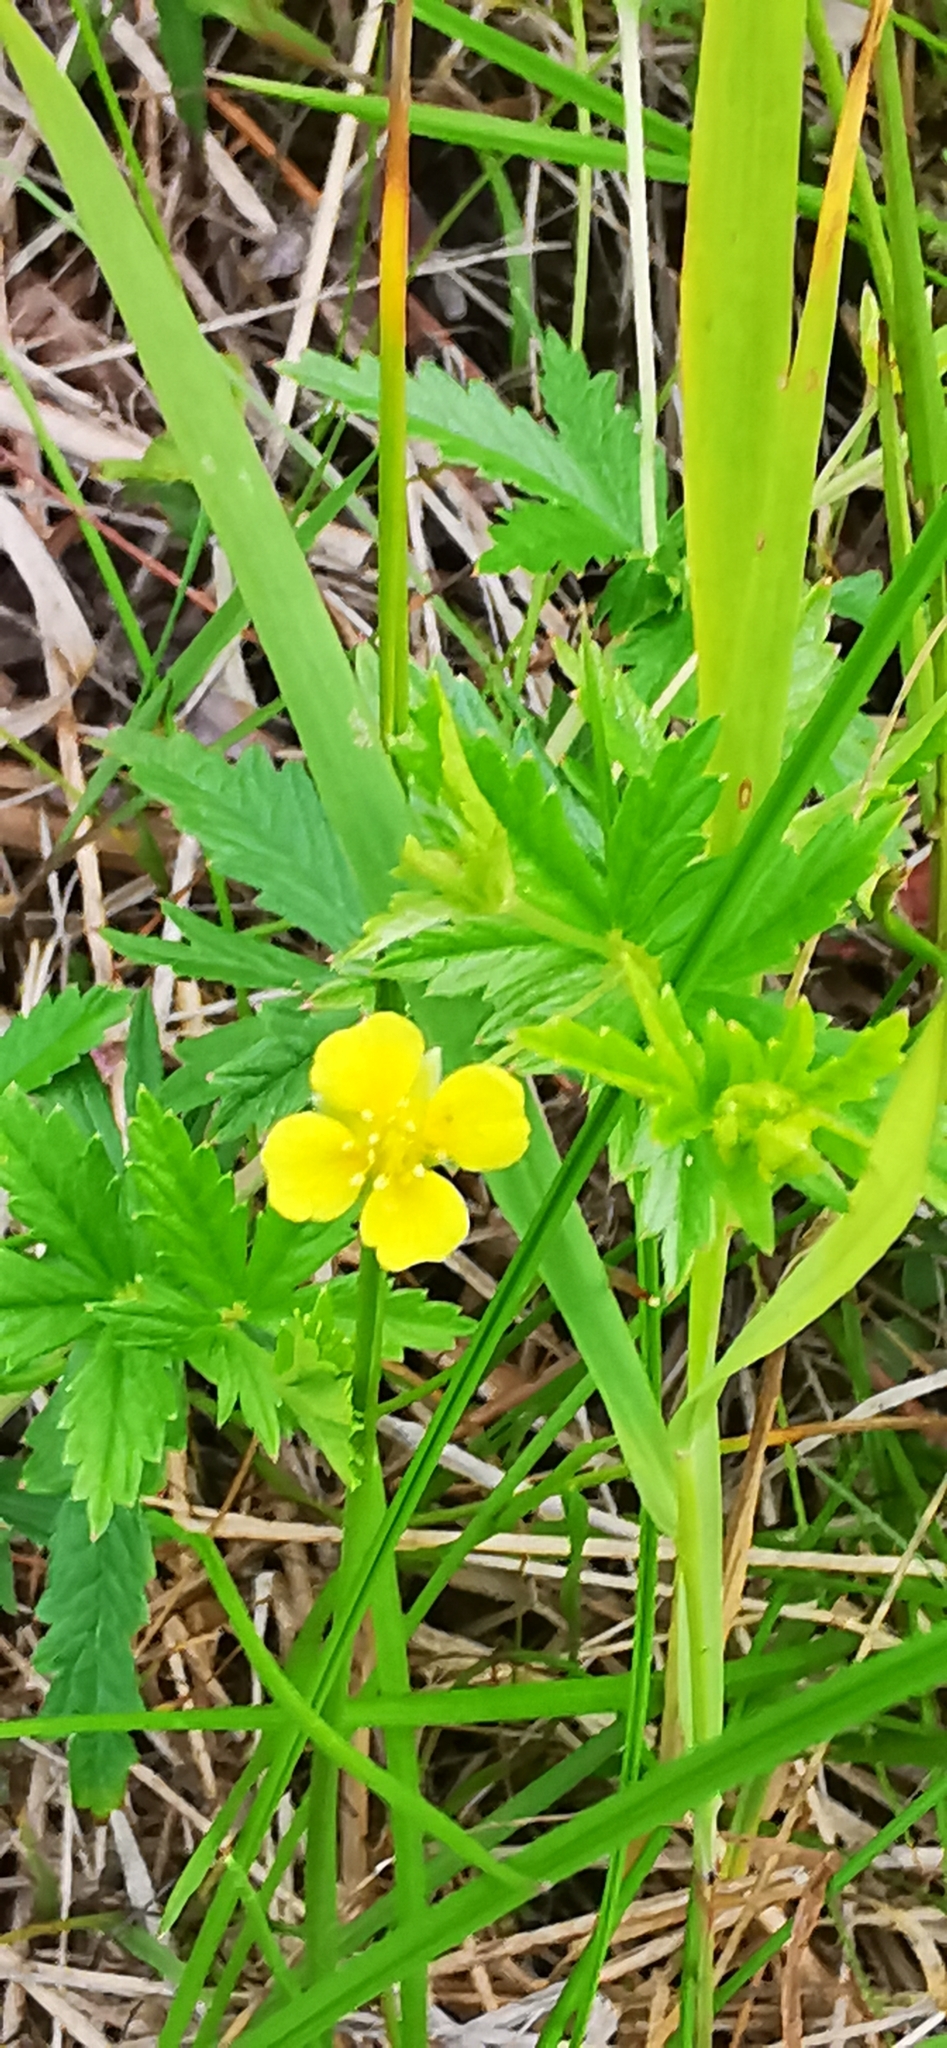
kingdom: Plantae
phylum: Tracheophyta
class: Magnoliopsida
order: Rosales
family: Rosaceae
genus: Potentilla
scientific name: Potentilla erecta
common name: Tormentil
